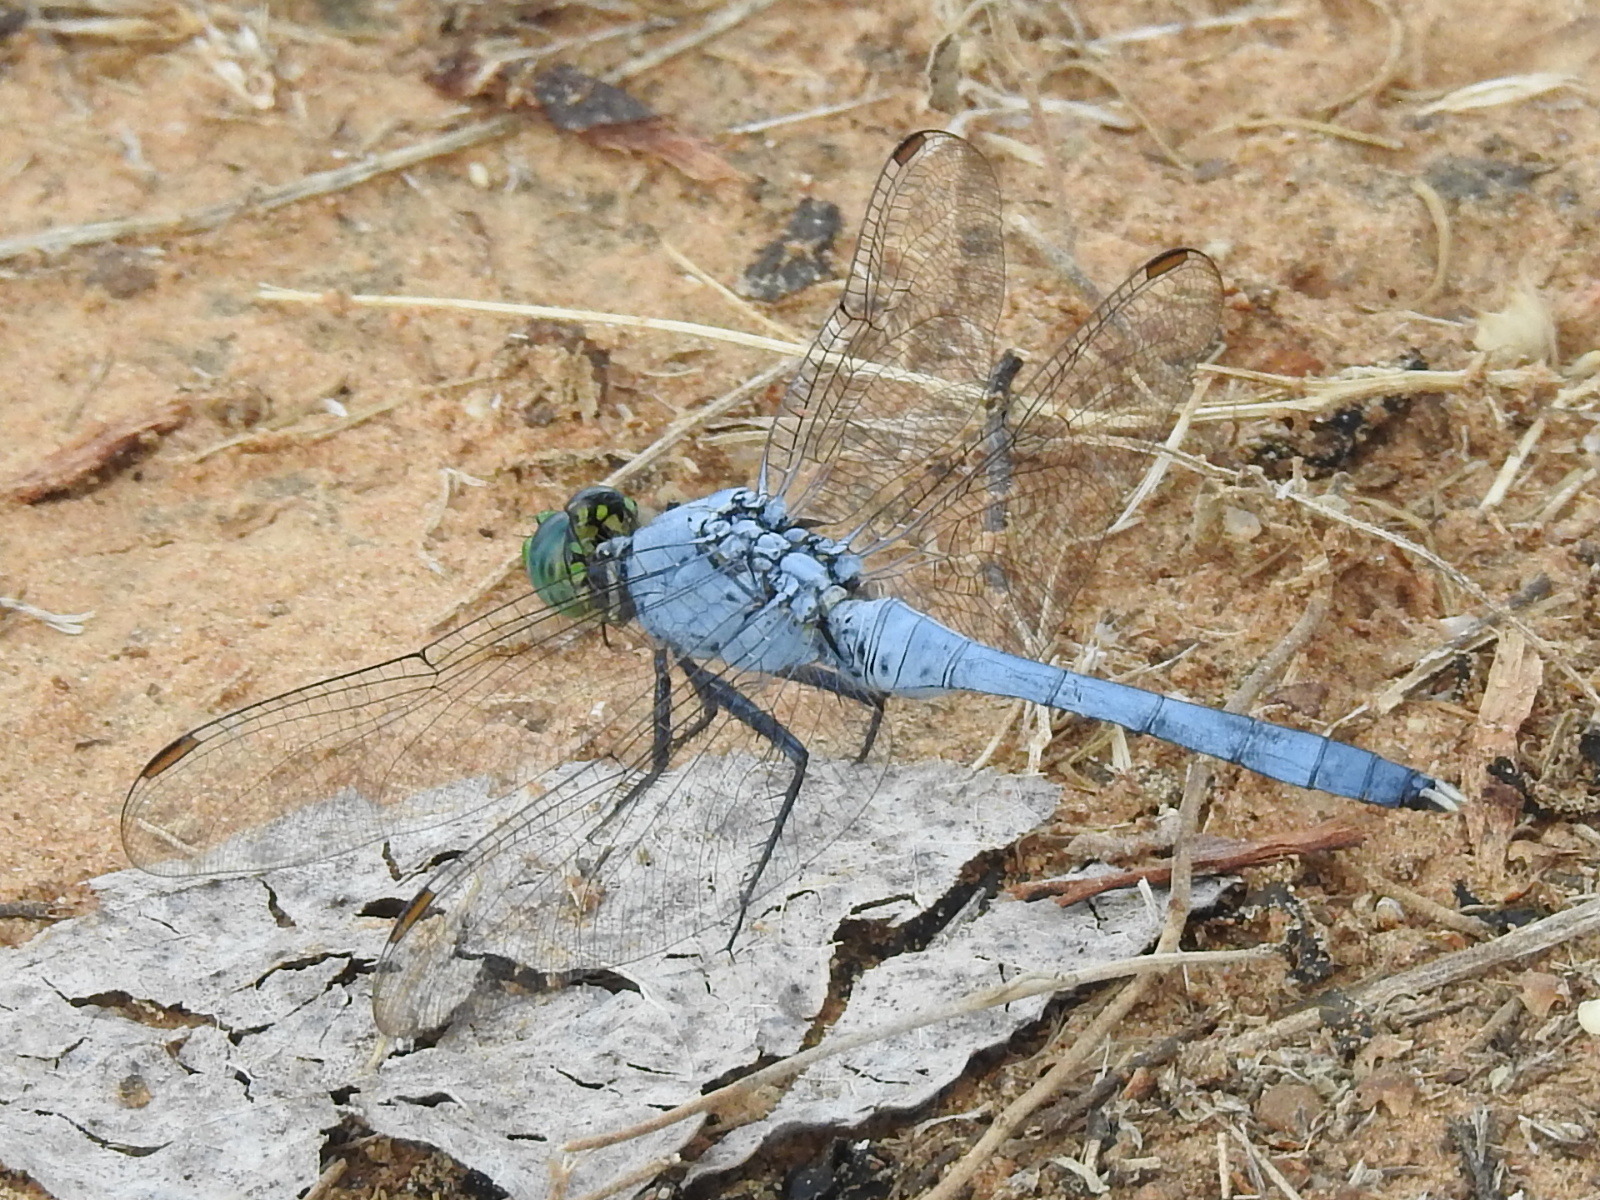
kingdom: Animalia
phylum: Arthropoda
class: Insecta
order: Odonata
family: Libellulidae
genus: Erythemis
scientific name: Erythemis simplicicollis
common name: Eastern pondhawk
